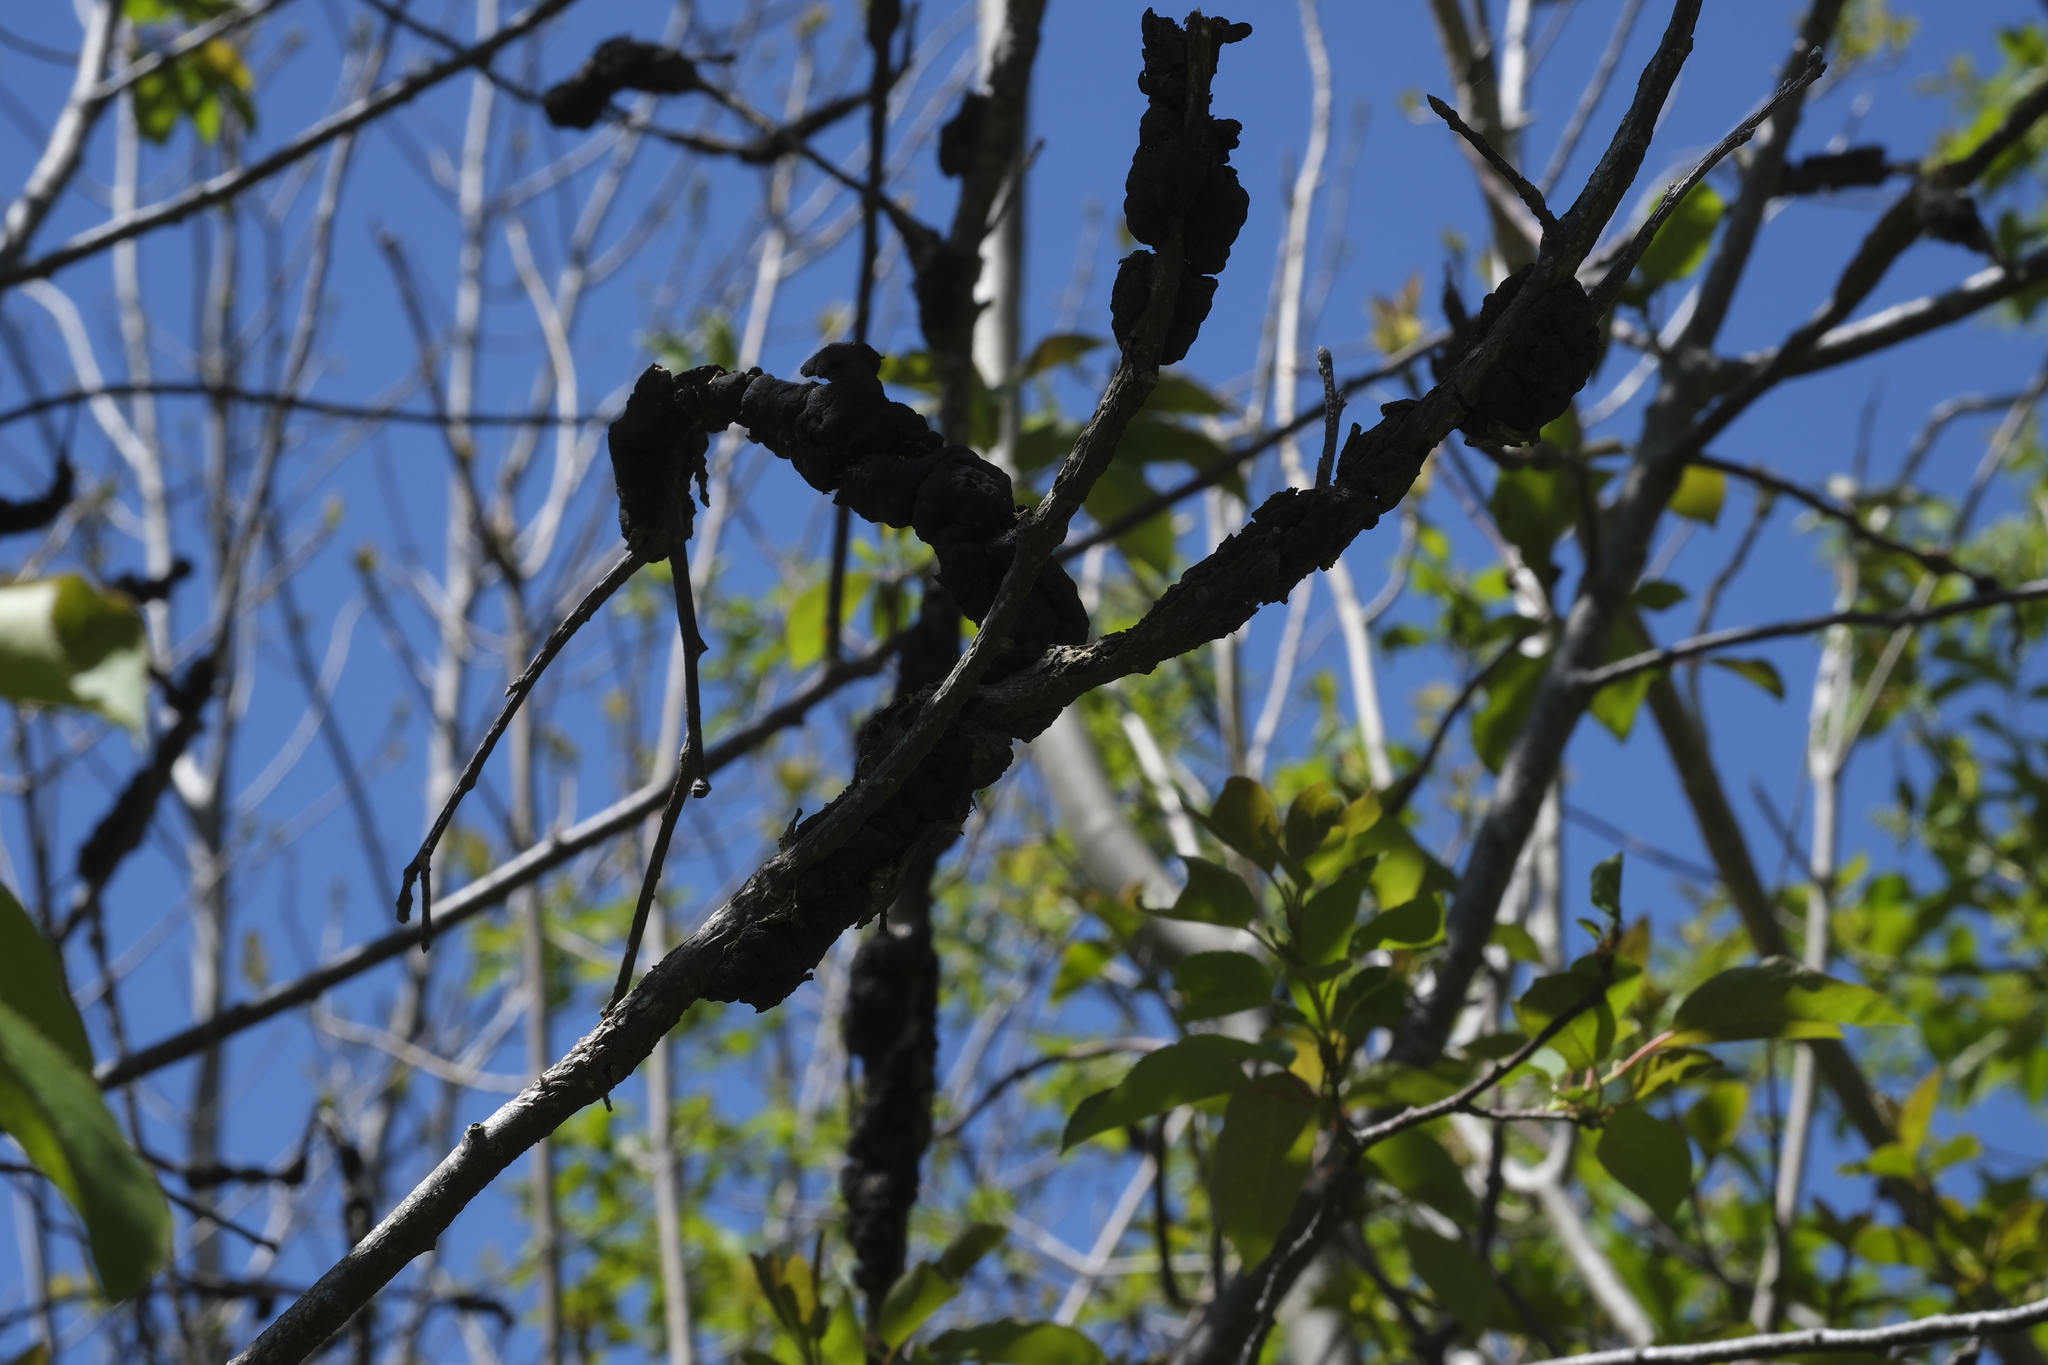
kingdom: Fungi
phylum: Ascomycota
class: Dothideomycetes
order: Venturiales
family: Venturiaceae
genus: Apiosporina
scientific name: Apiosporina morbosa
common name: Black knot
